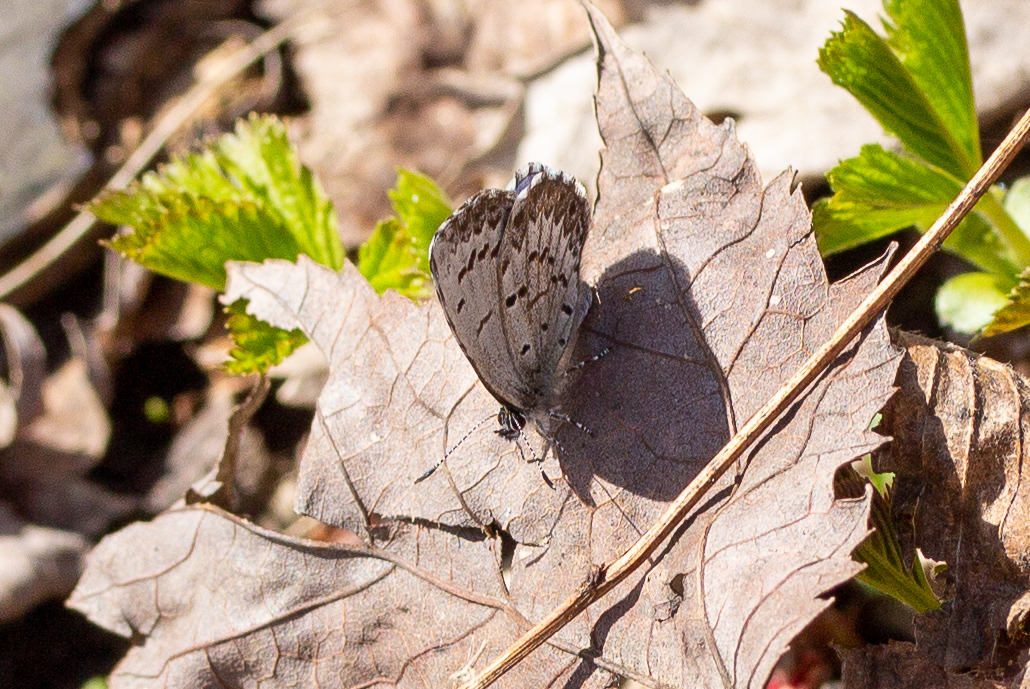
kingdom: Animalia
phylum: Arthropoda
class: Insecta
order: Lepidoptera
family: Lycaenidae
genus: Celastrina
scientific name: Celastrina lucia
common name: Lucia azure
